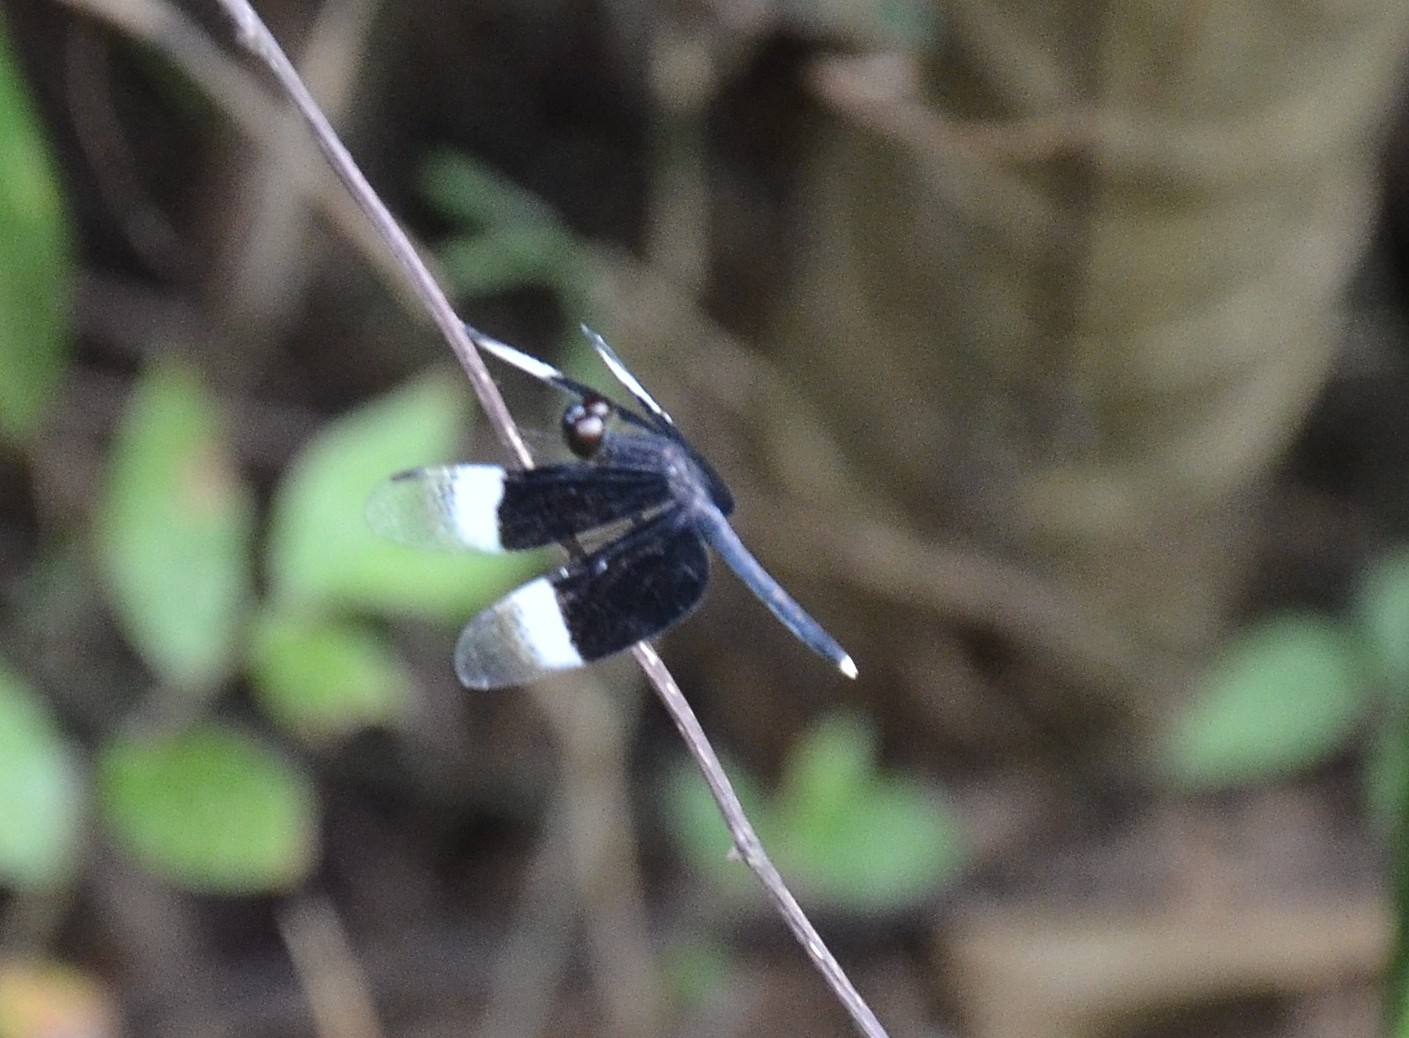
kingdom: Animalia
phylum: Arthropoda
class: Insecta
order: Odonata
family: Libellulidae
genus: Neurothemis
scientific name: Neurothemis tullia
